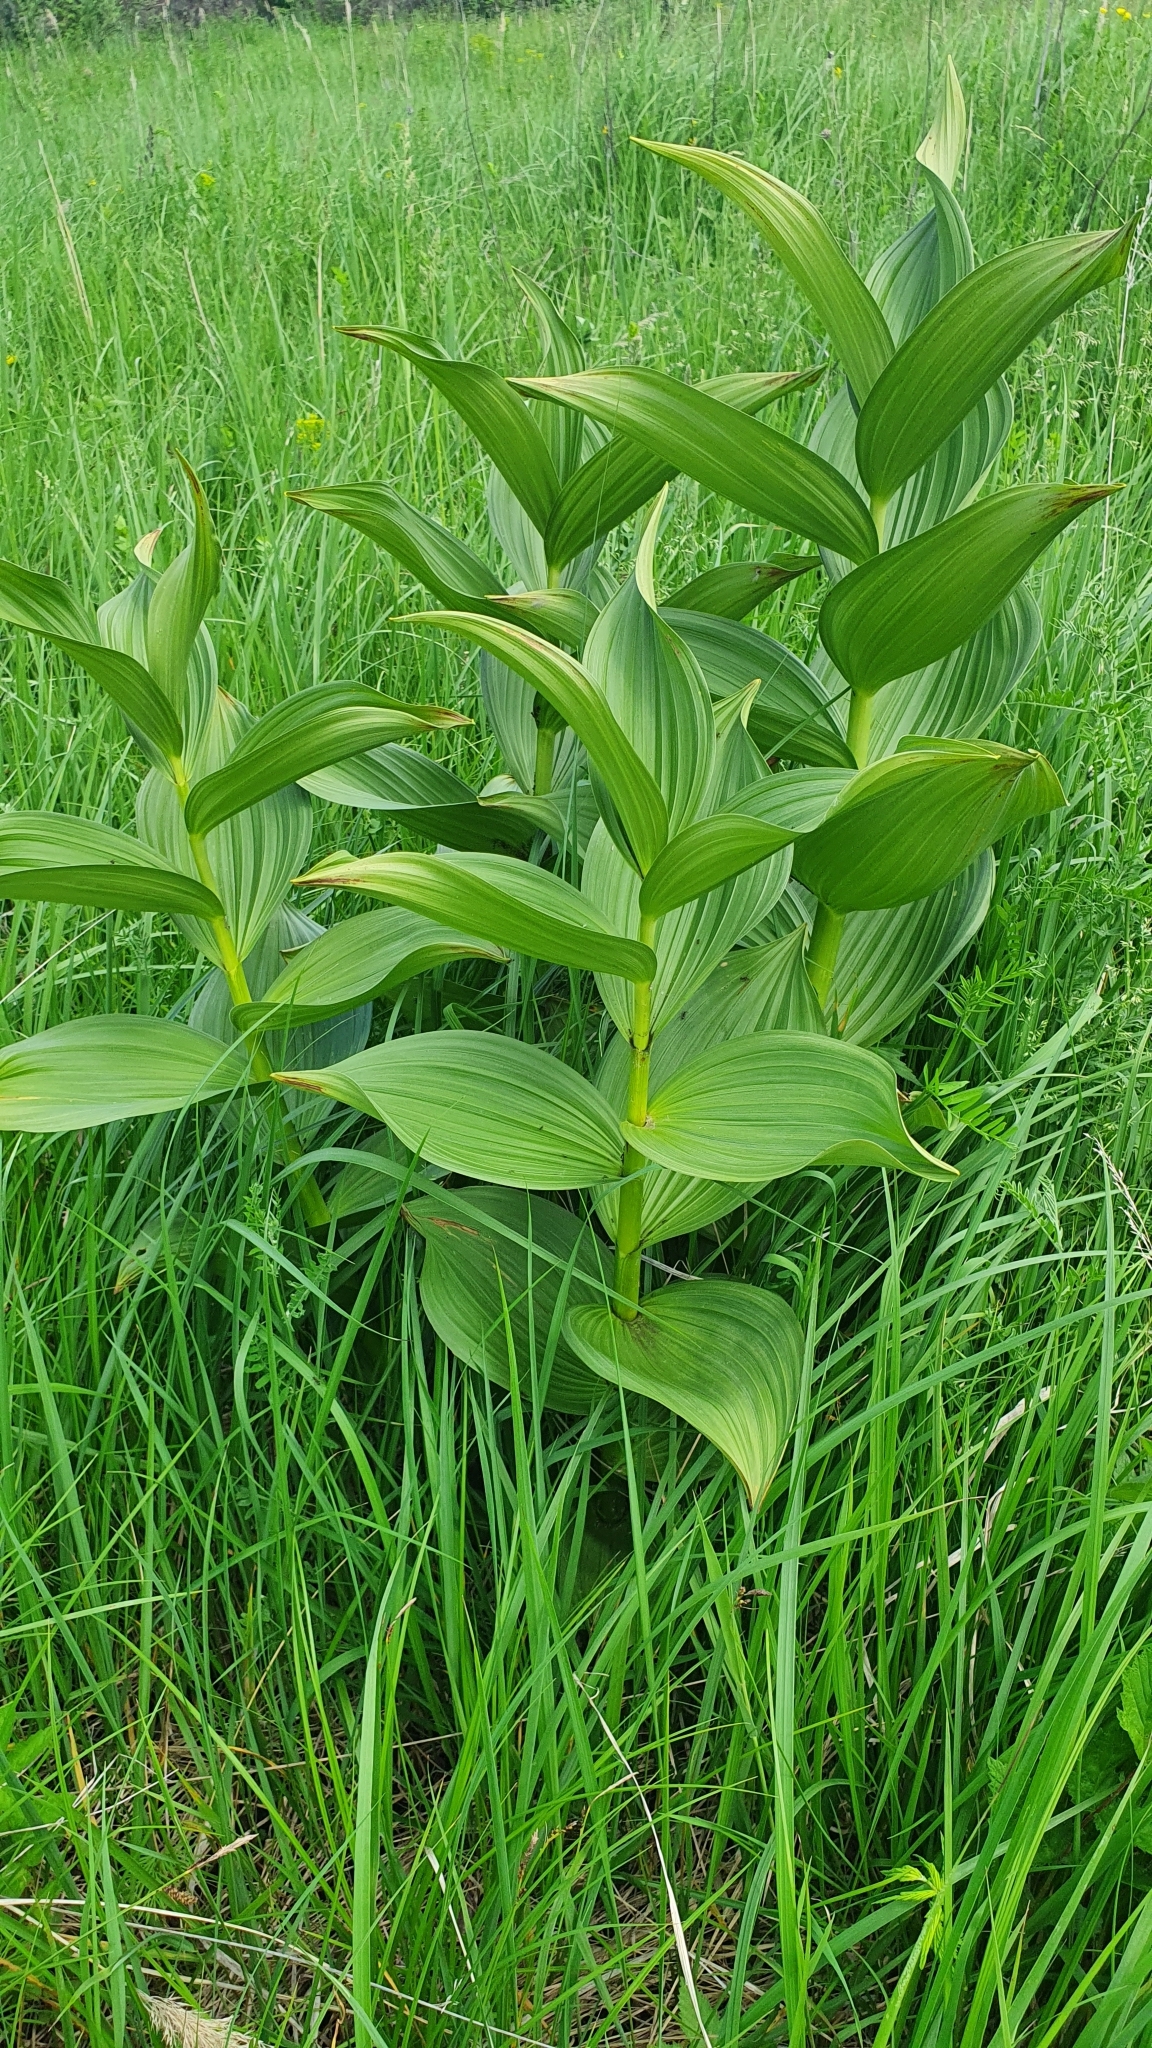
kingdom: Plantae
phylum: Tracheophyta
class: Liliopsida
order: Liliales
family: Melanthiaceae
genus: Veratrum
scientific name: Veratrum lobelianum
